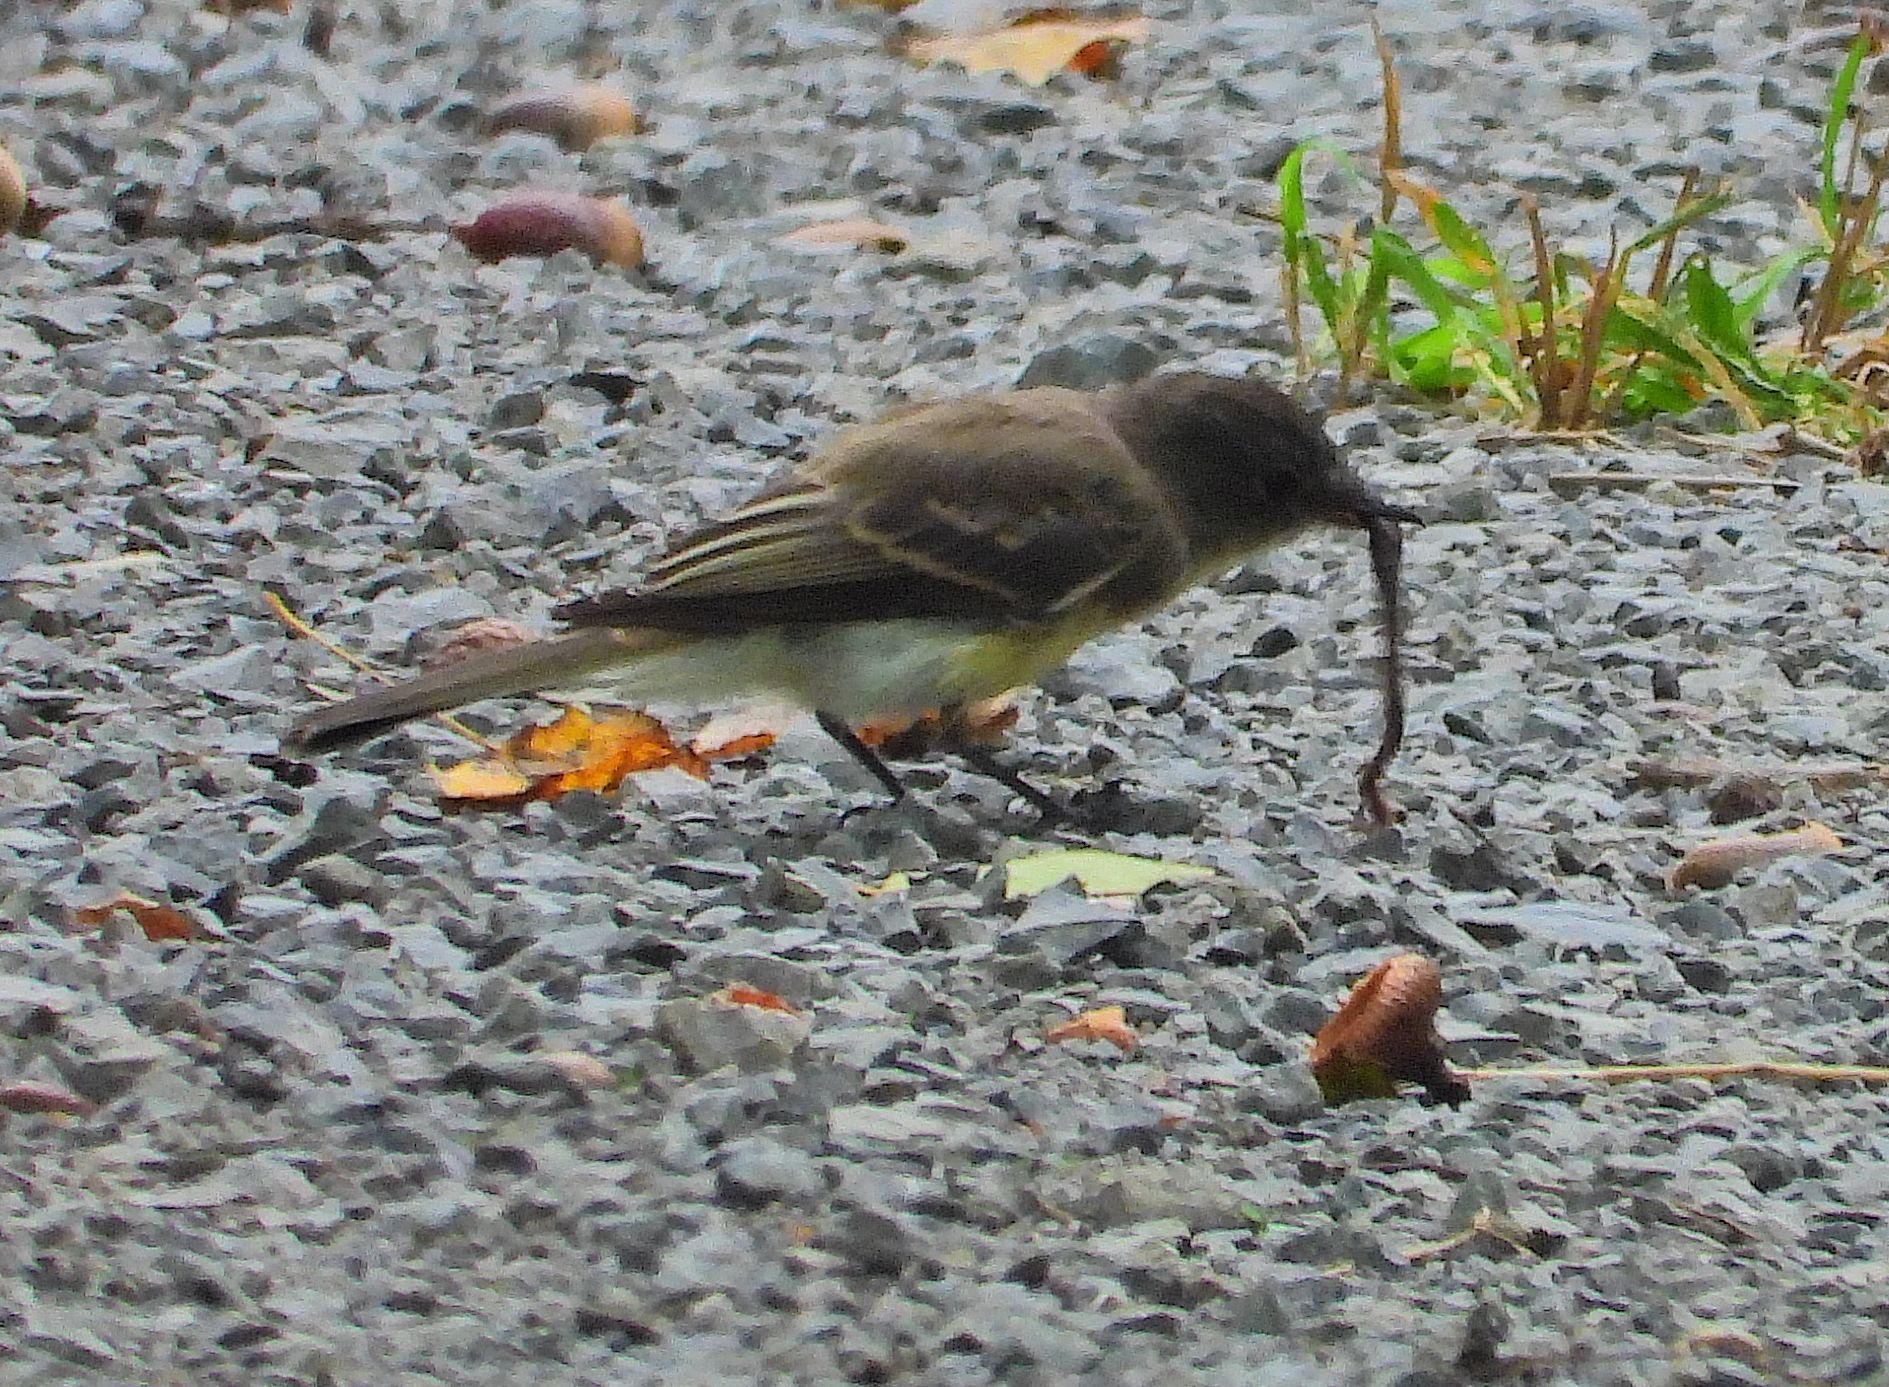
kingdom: Animalia
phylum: Chordata
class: Aves
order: Passeriformes
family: Tyrannidae
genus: Sayornis
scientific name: Sayornis phoebe
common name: Eastern phoebe
